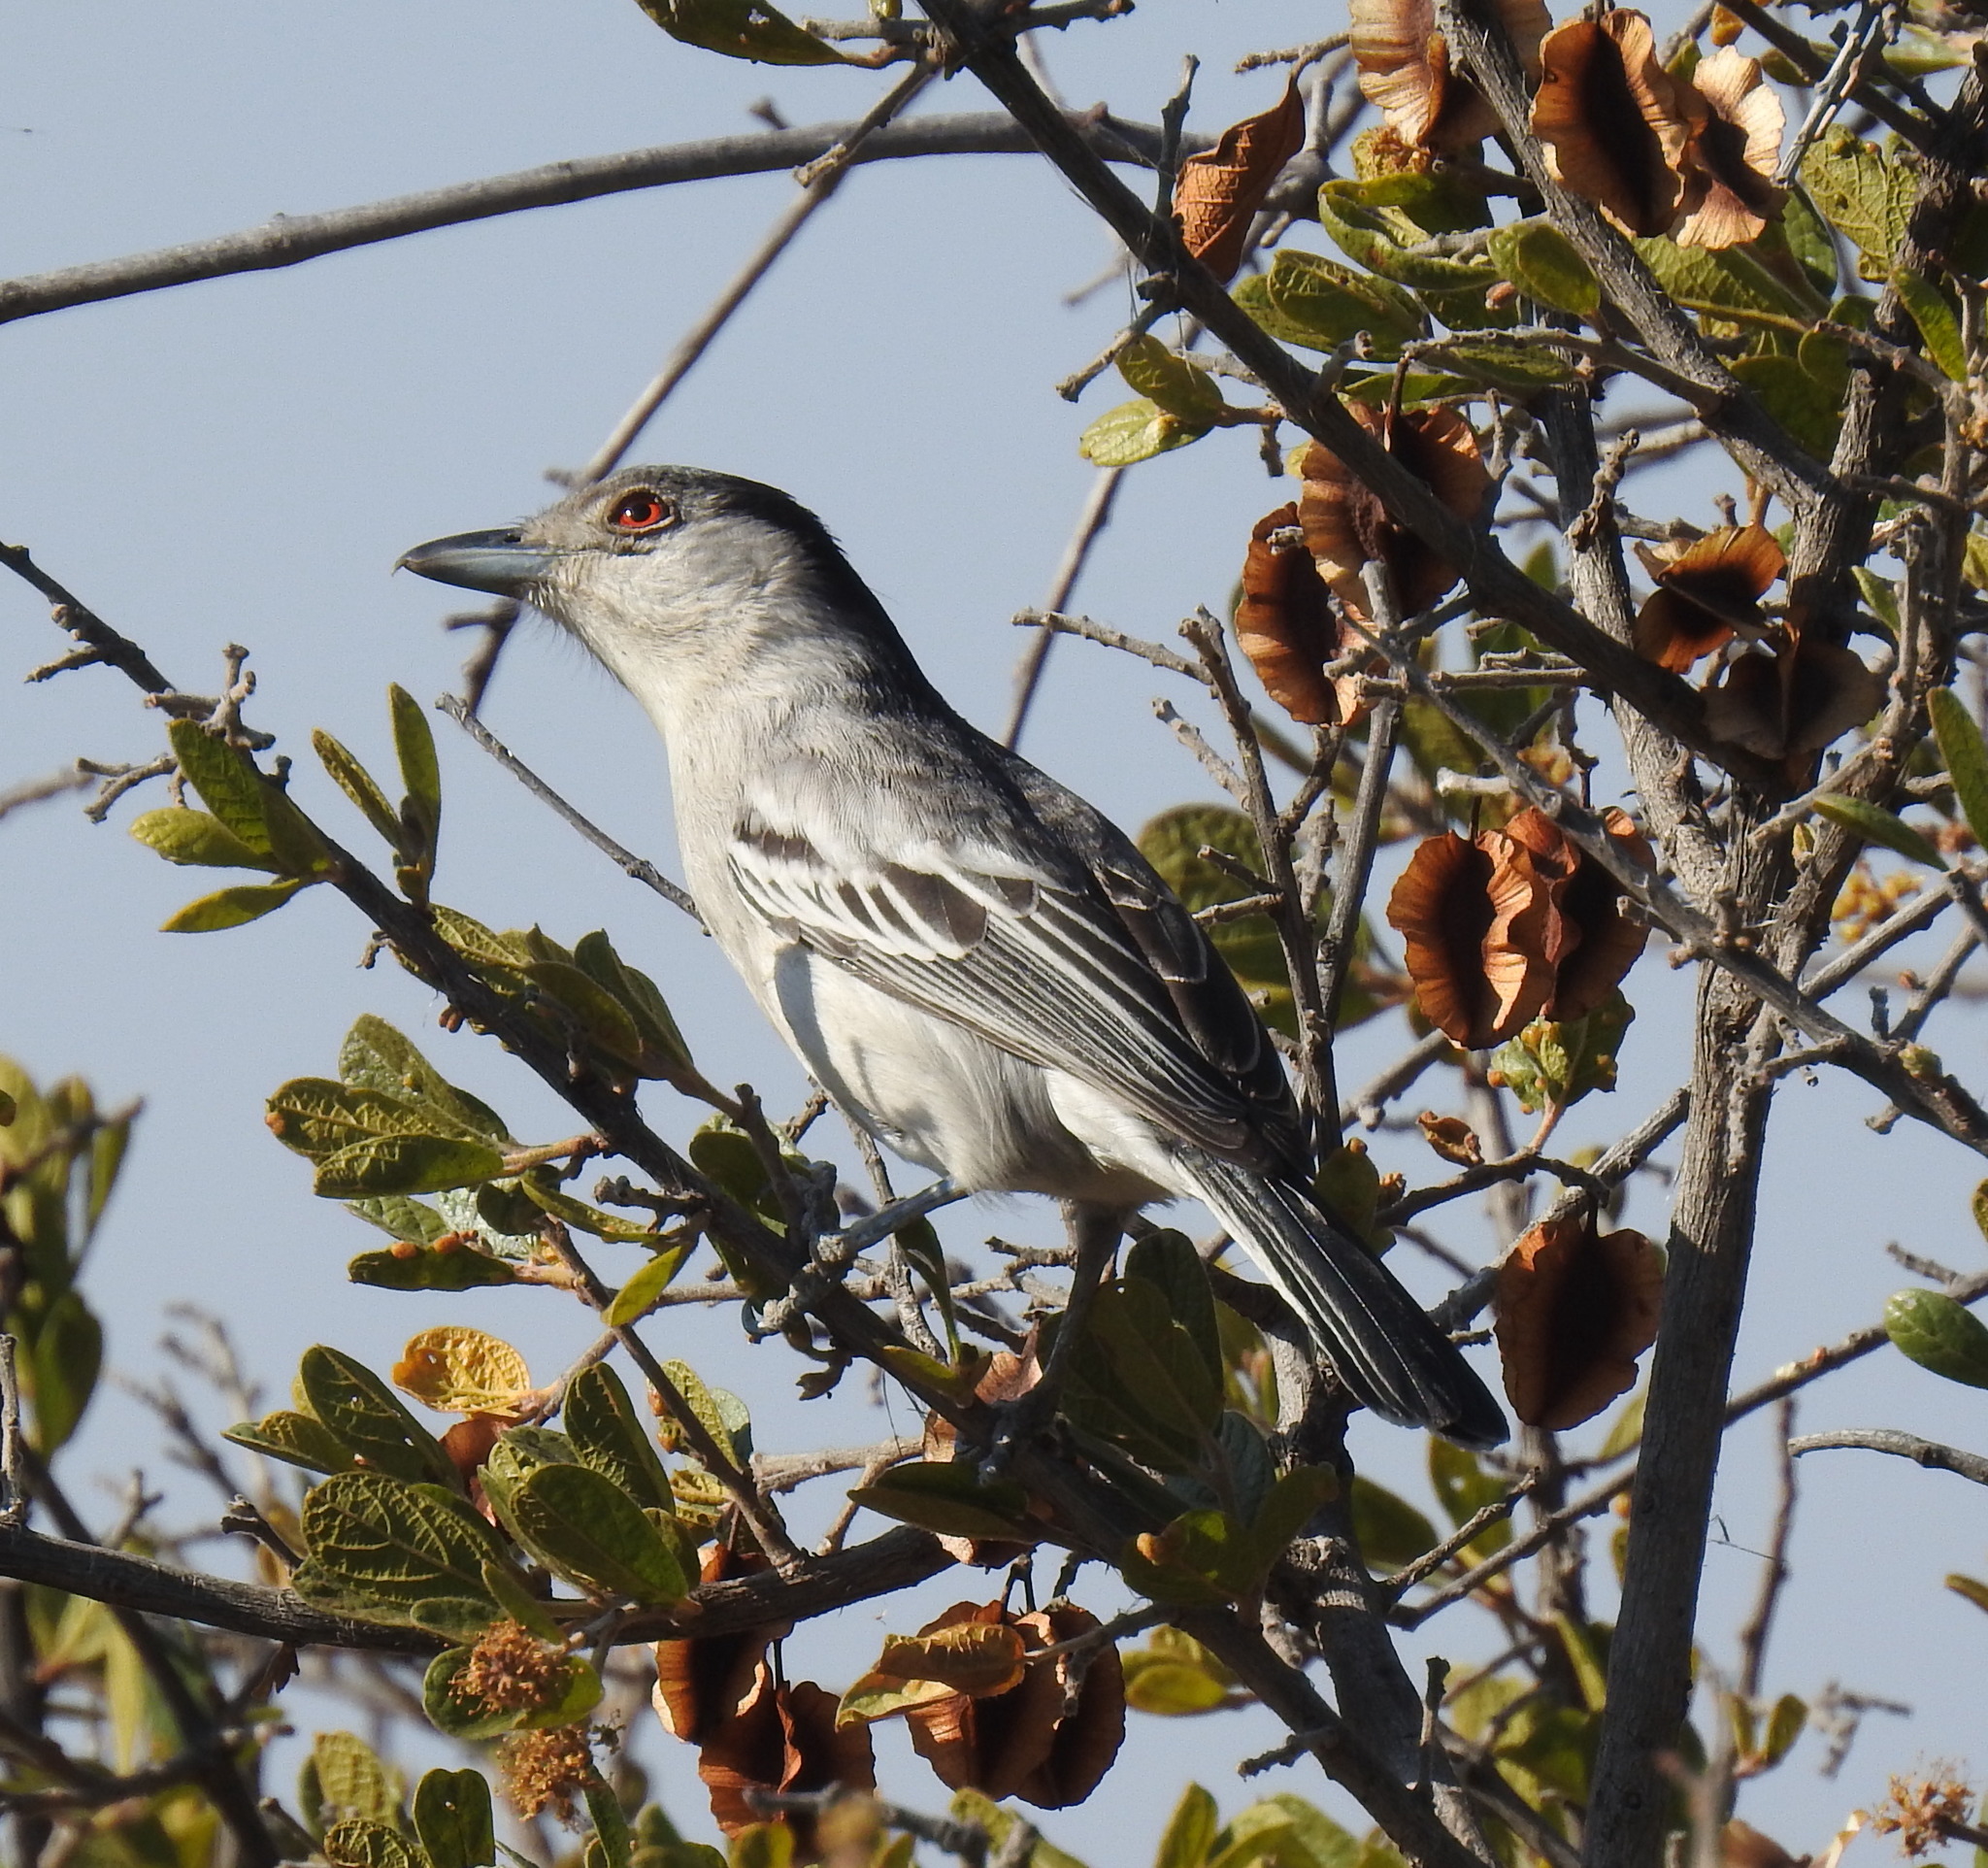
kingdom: Animalia
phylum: Chordata
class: Aves
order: Passeriformes
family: Malaconotidae
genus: Dryoscopus
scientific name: Dryoscopus cubla
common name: Black-backed puffback
